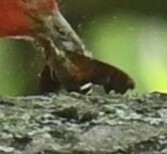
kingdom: Animalia
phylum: Arthropoda
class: Insecta
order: Lepidoptera
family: Sphingidae
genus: Amphion
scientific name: Amphion floridensis
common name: Nessus sphinx
